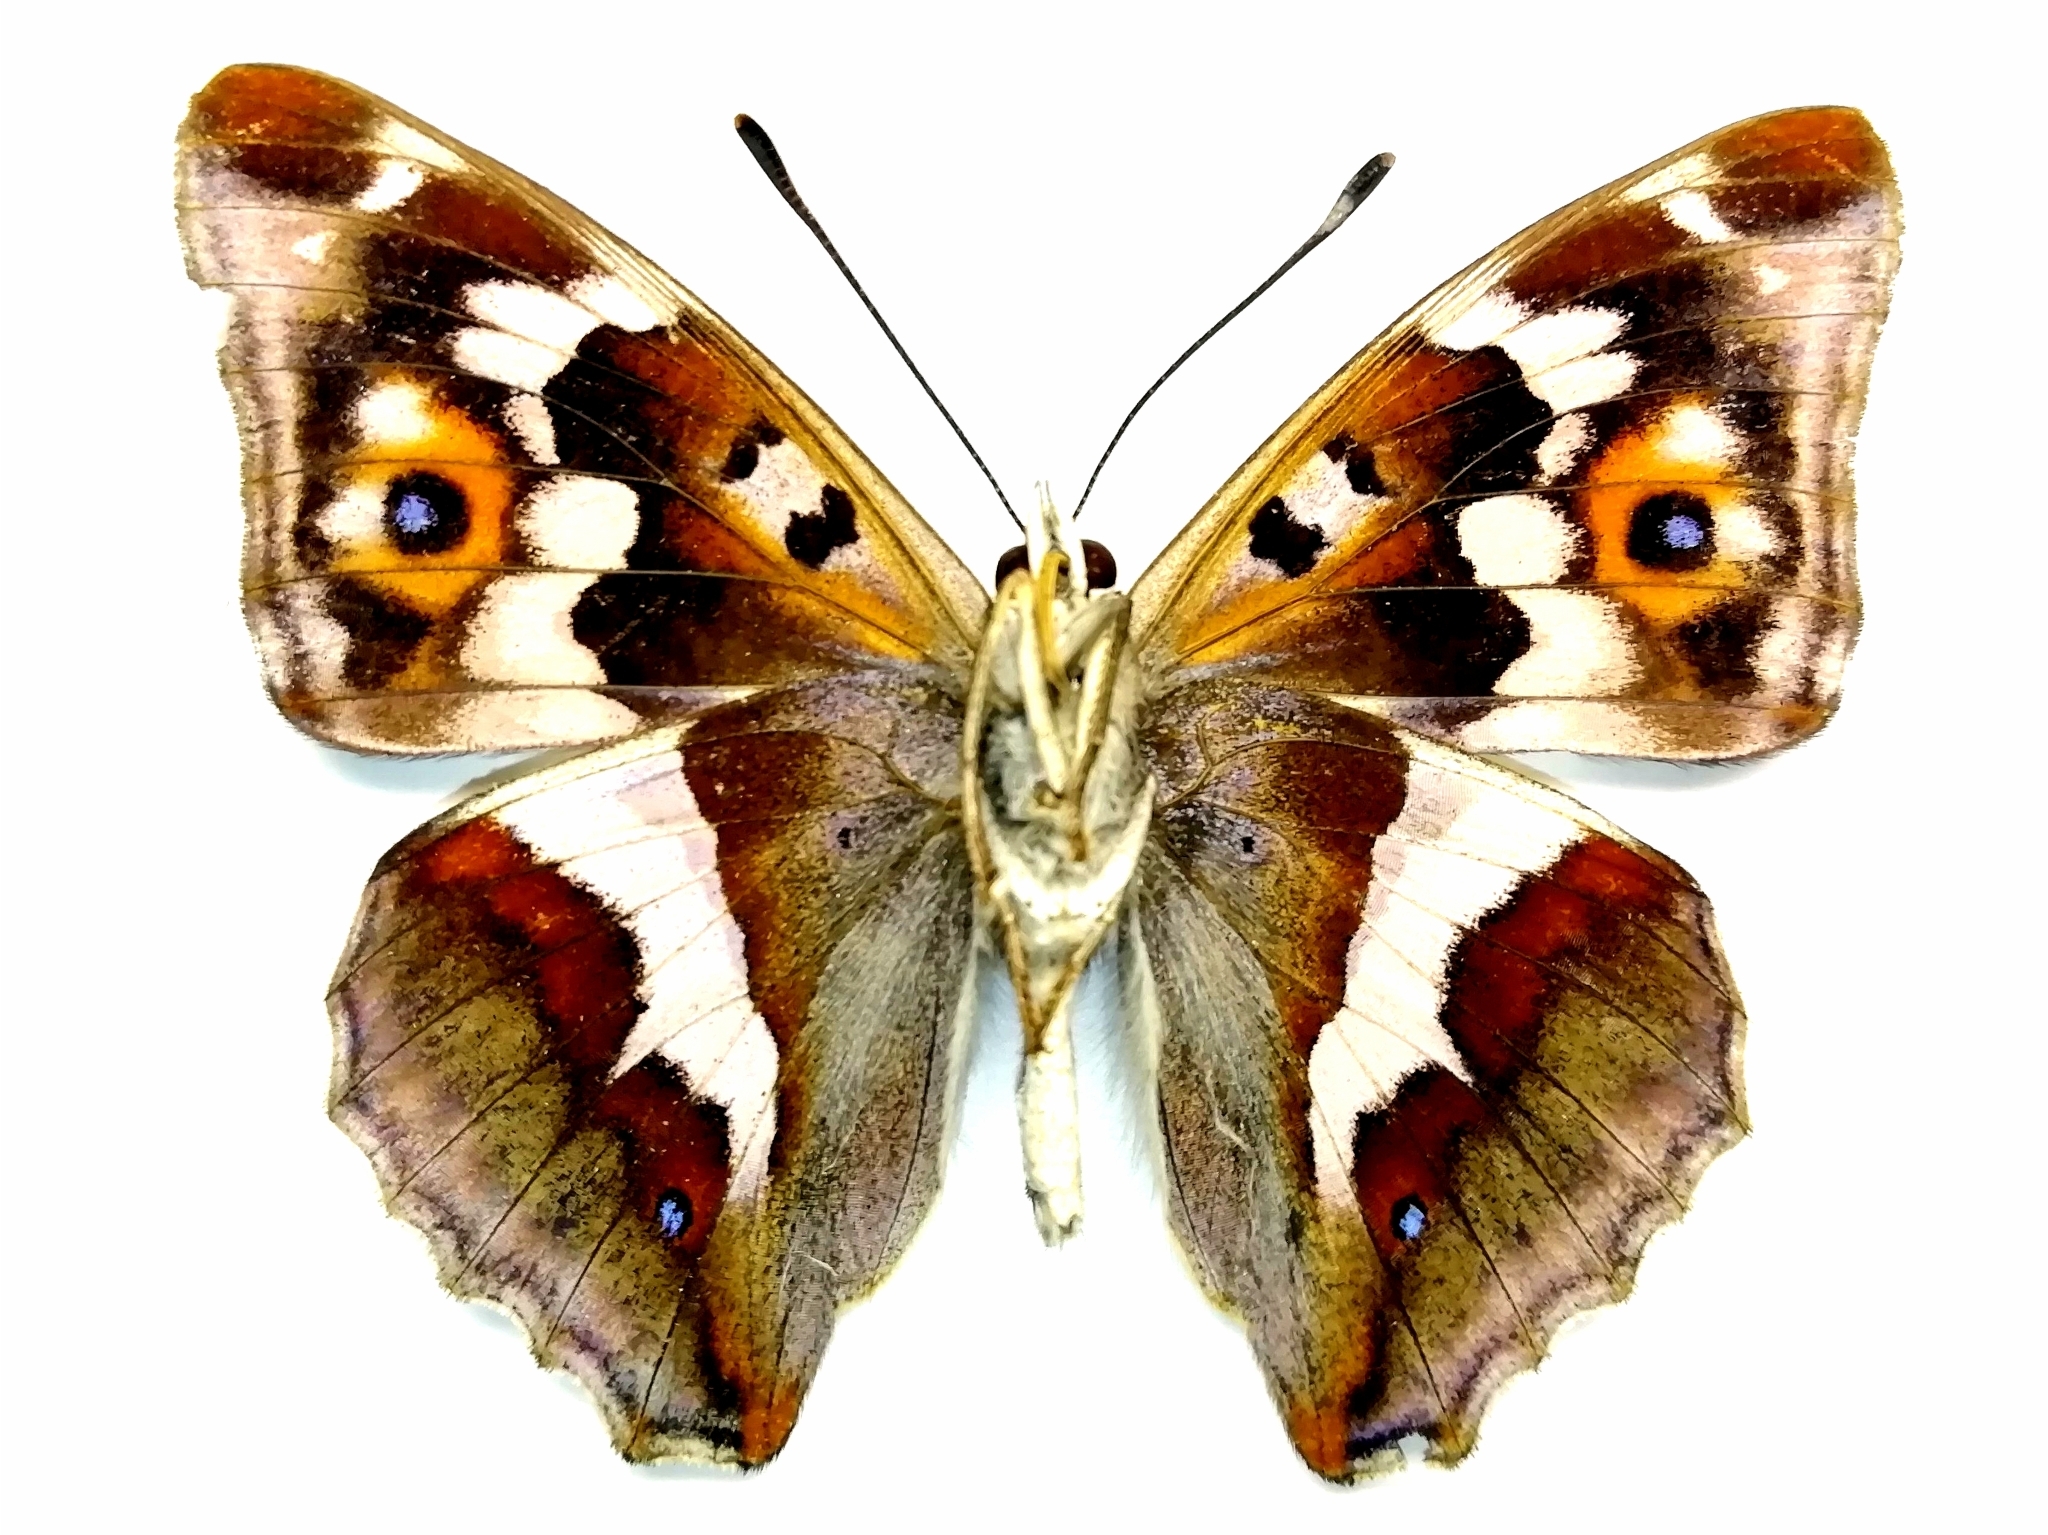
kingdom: Animalia
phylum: Arthropoda
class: Insecta
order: Lepidoptera
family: Nymphalidae
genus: Apatura
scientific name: Apatura iris
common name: Purple emperor
